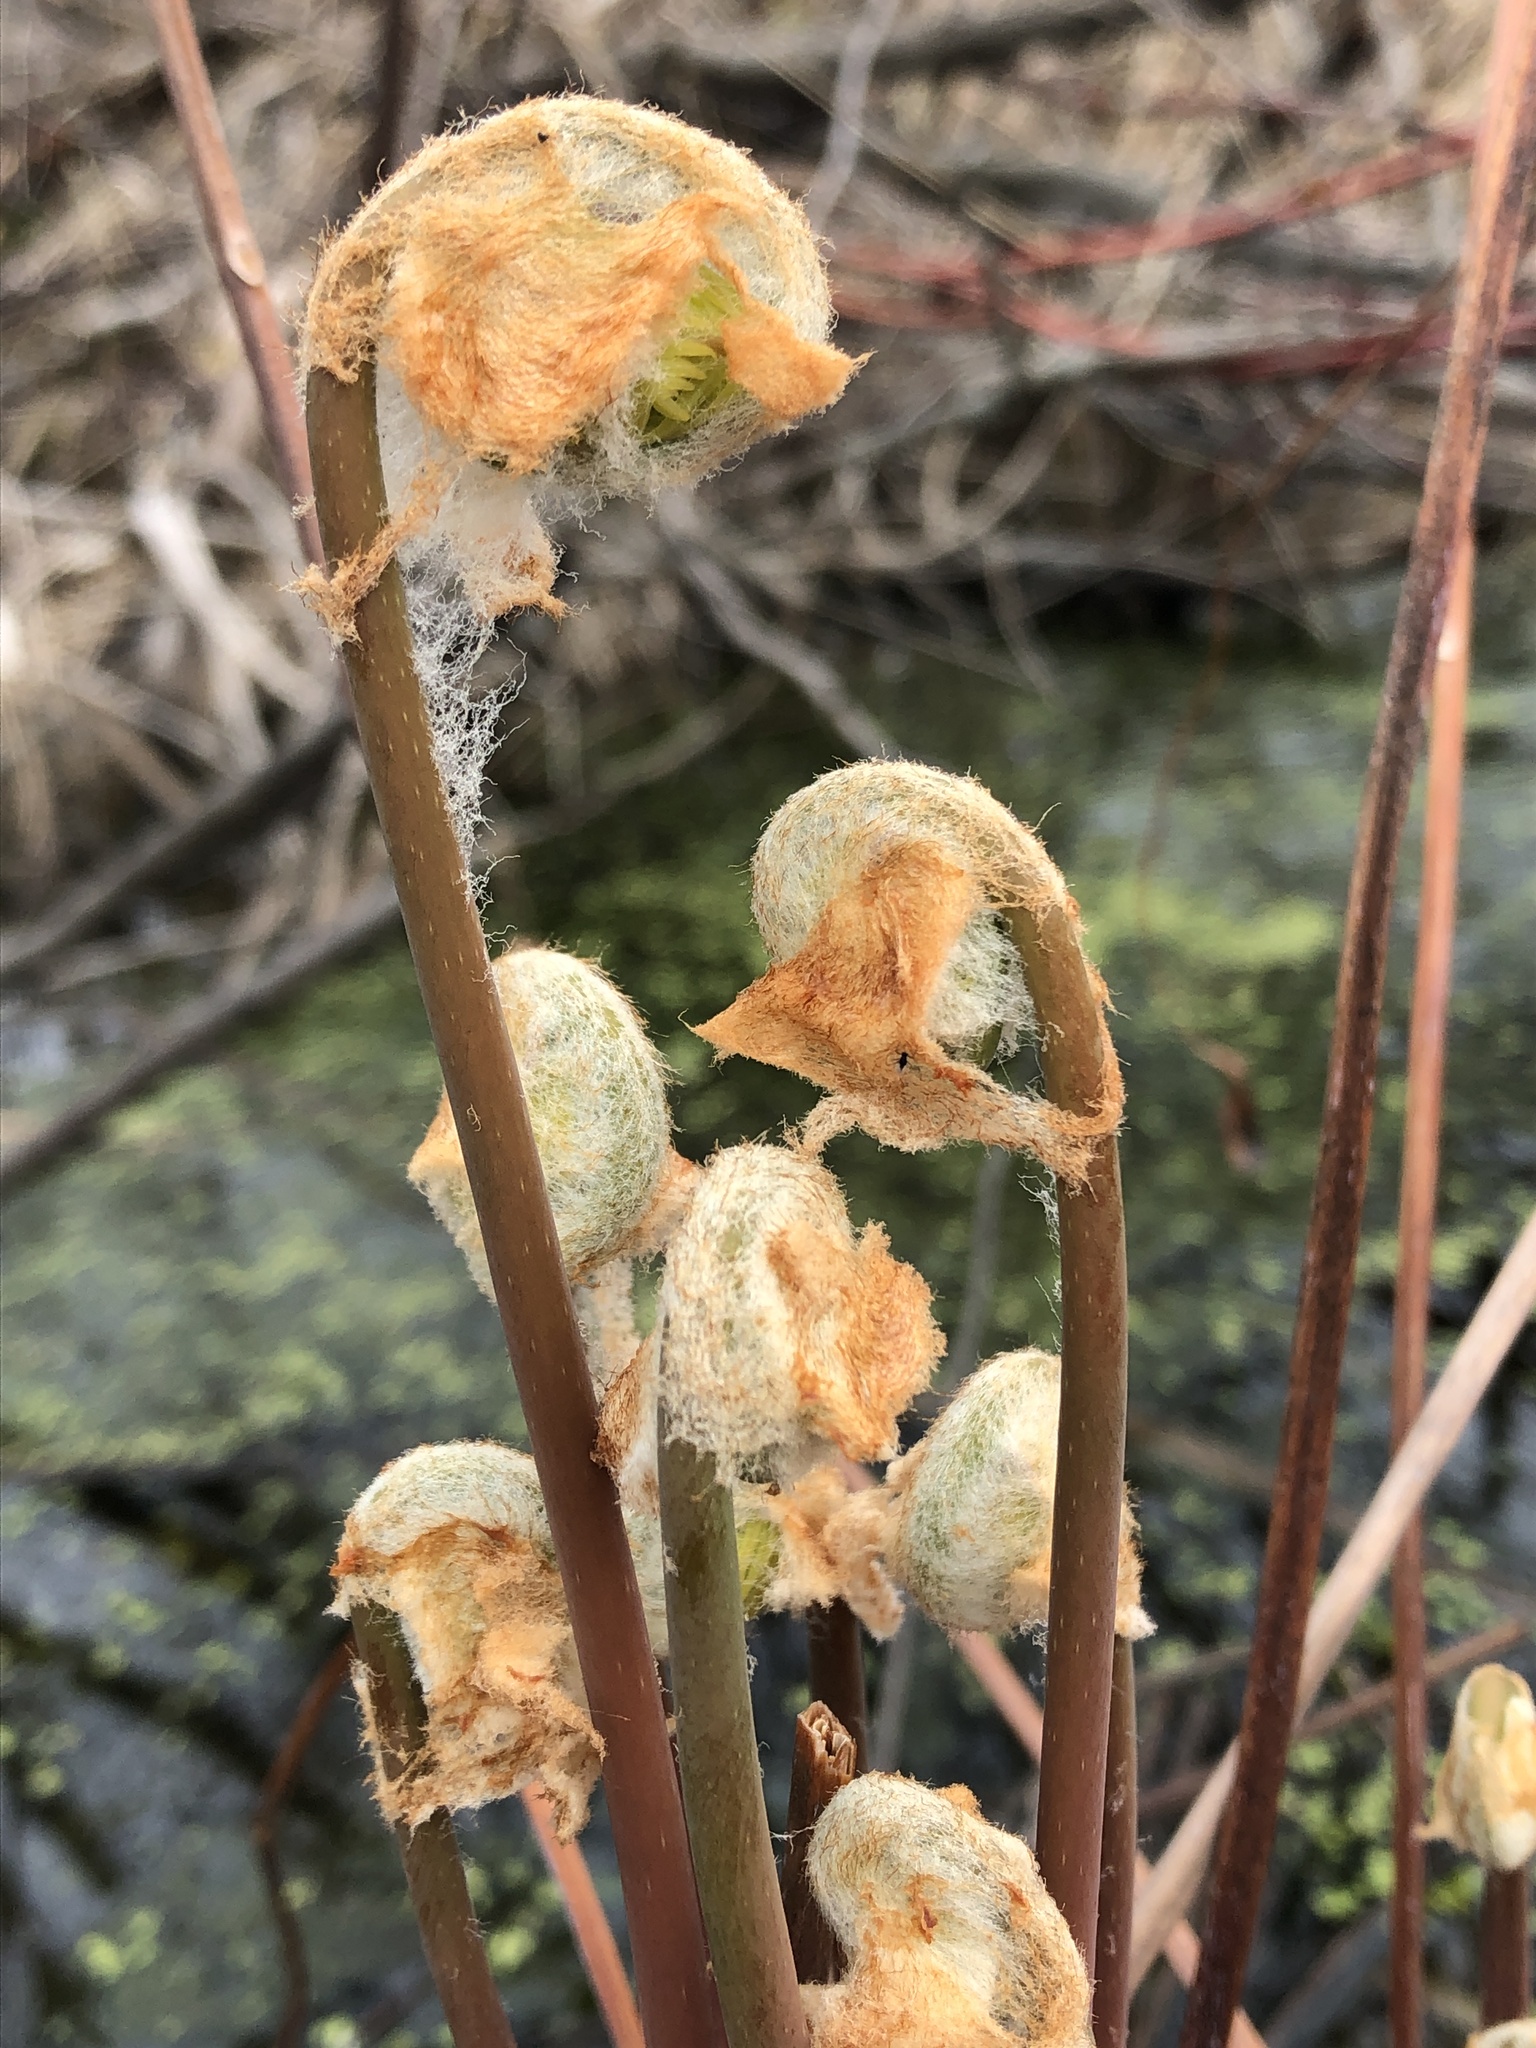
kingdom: Plantae
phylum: Tracheophyta
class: Polypodiopsida
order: Osmundales
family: Osmundaceae
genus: Osmunda
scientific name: Osmunda spectabilis
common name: American royal fern
